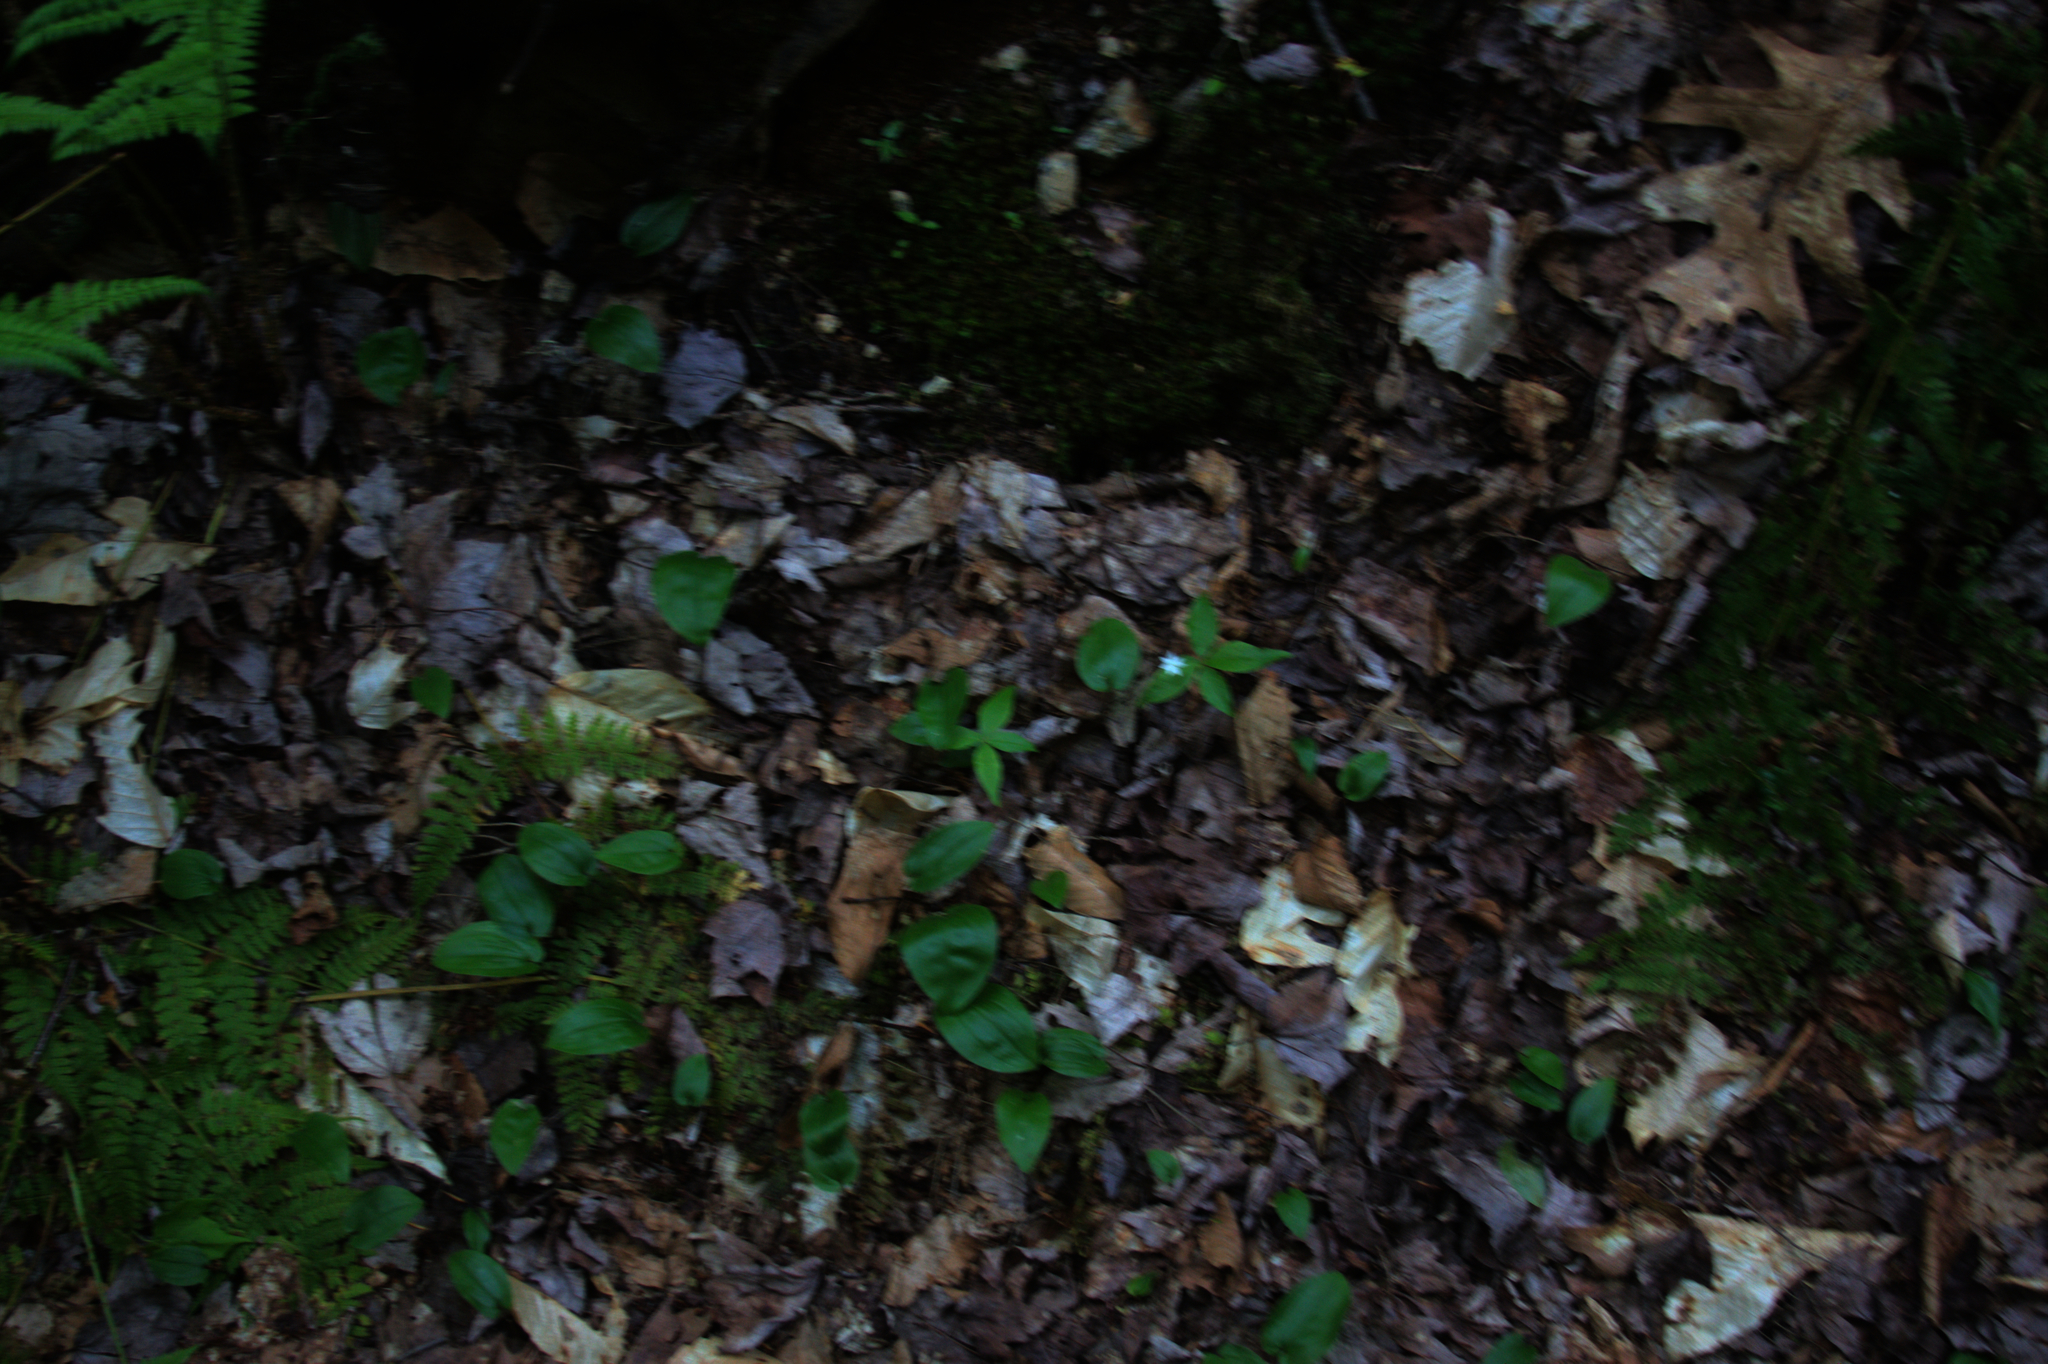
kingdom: Plantae
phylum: Tracheophyta
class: Magnoliopsida
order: Ericales
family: Primulaceae
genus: Lysimachia
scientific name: Lysimachia borealis
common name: American starflower
